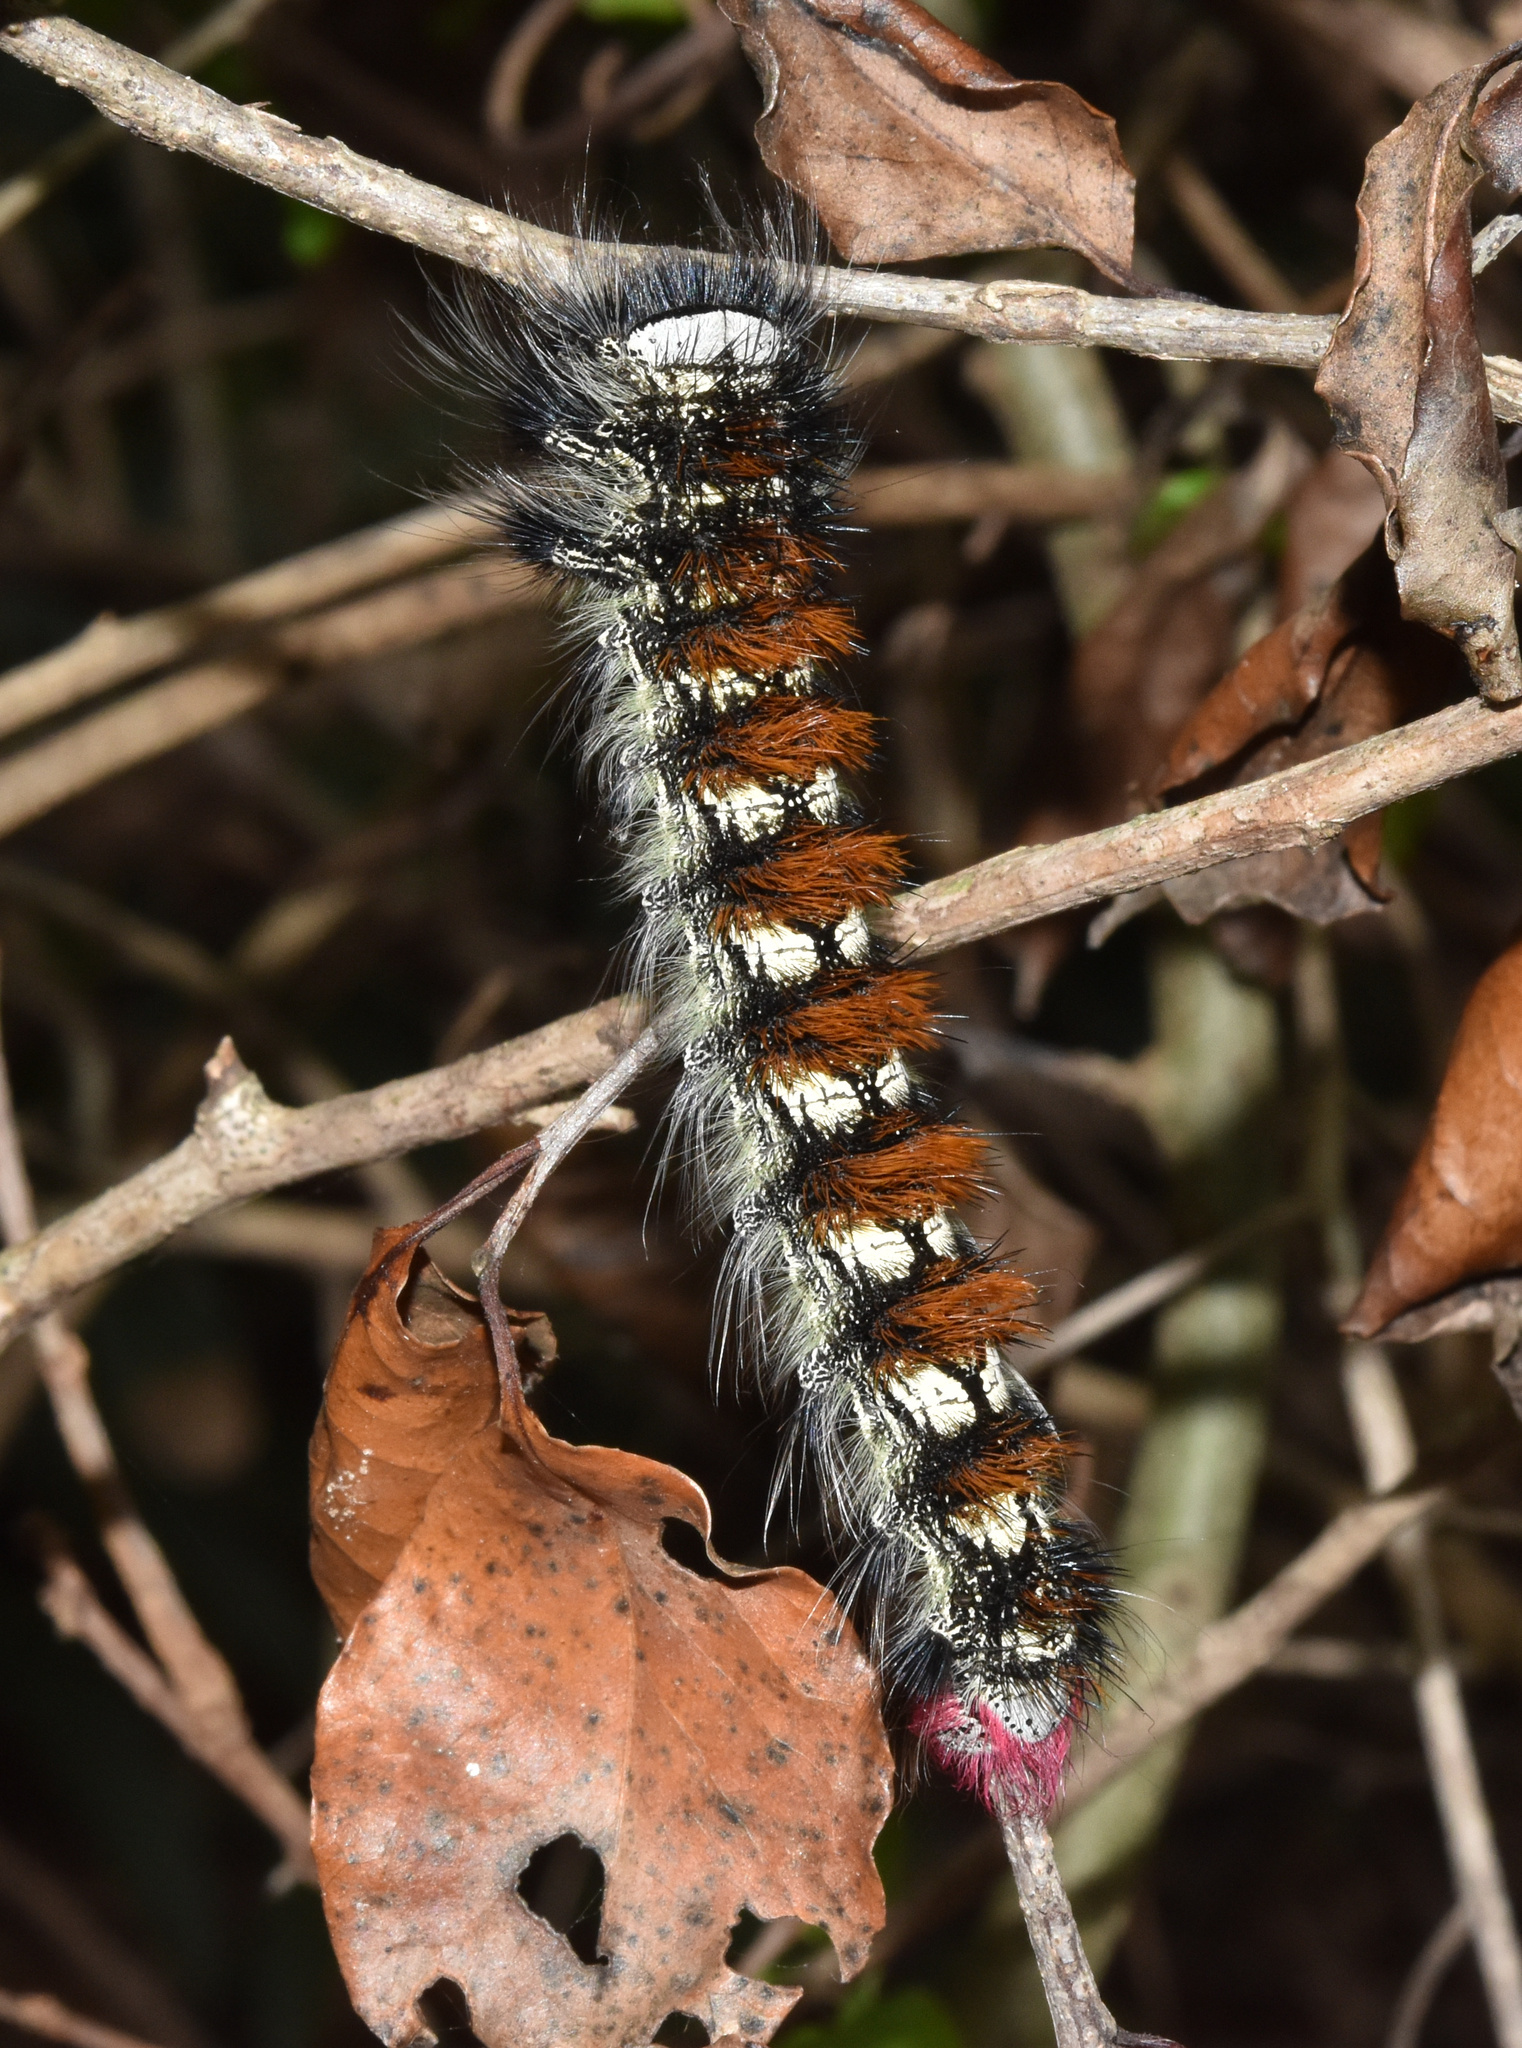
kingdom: Animalia
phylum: Arthropoda
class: Insecta
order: Lepidoptera
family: Lasiocampidae
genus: Catalebeda
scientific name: Catalebeda cuneilinea
